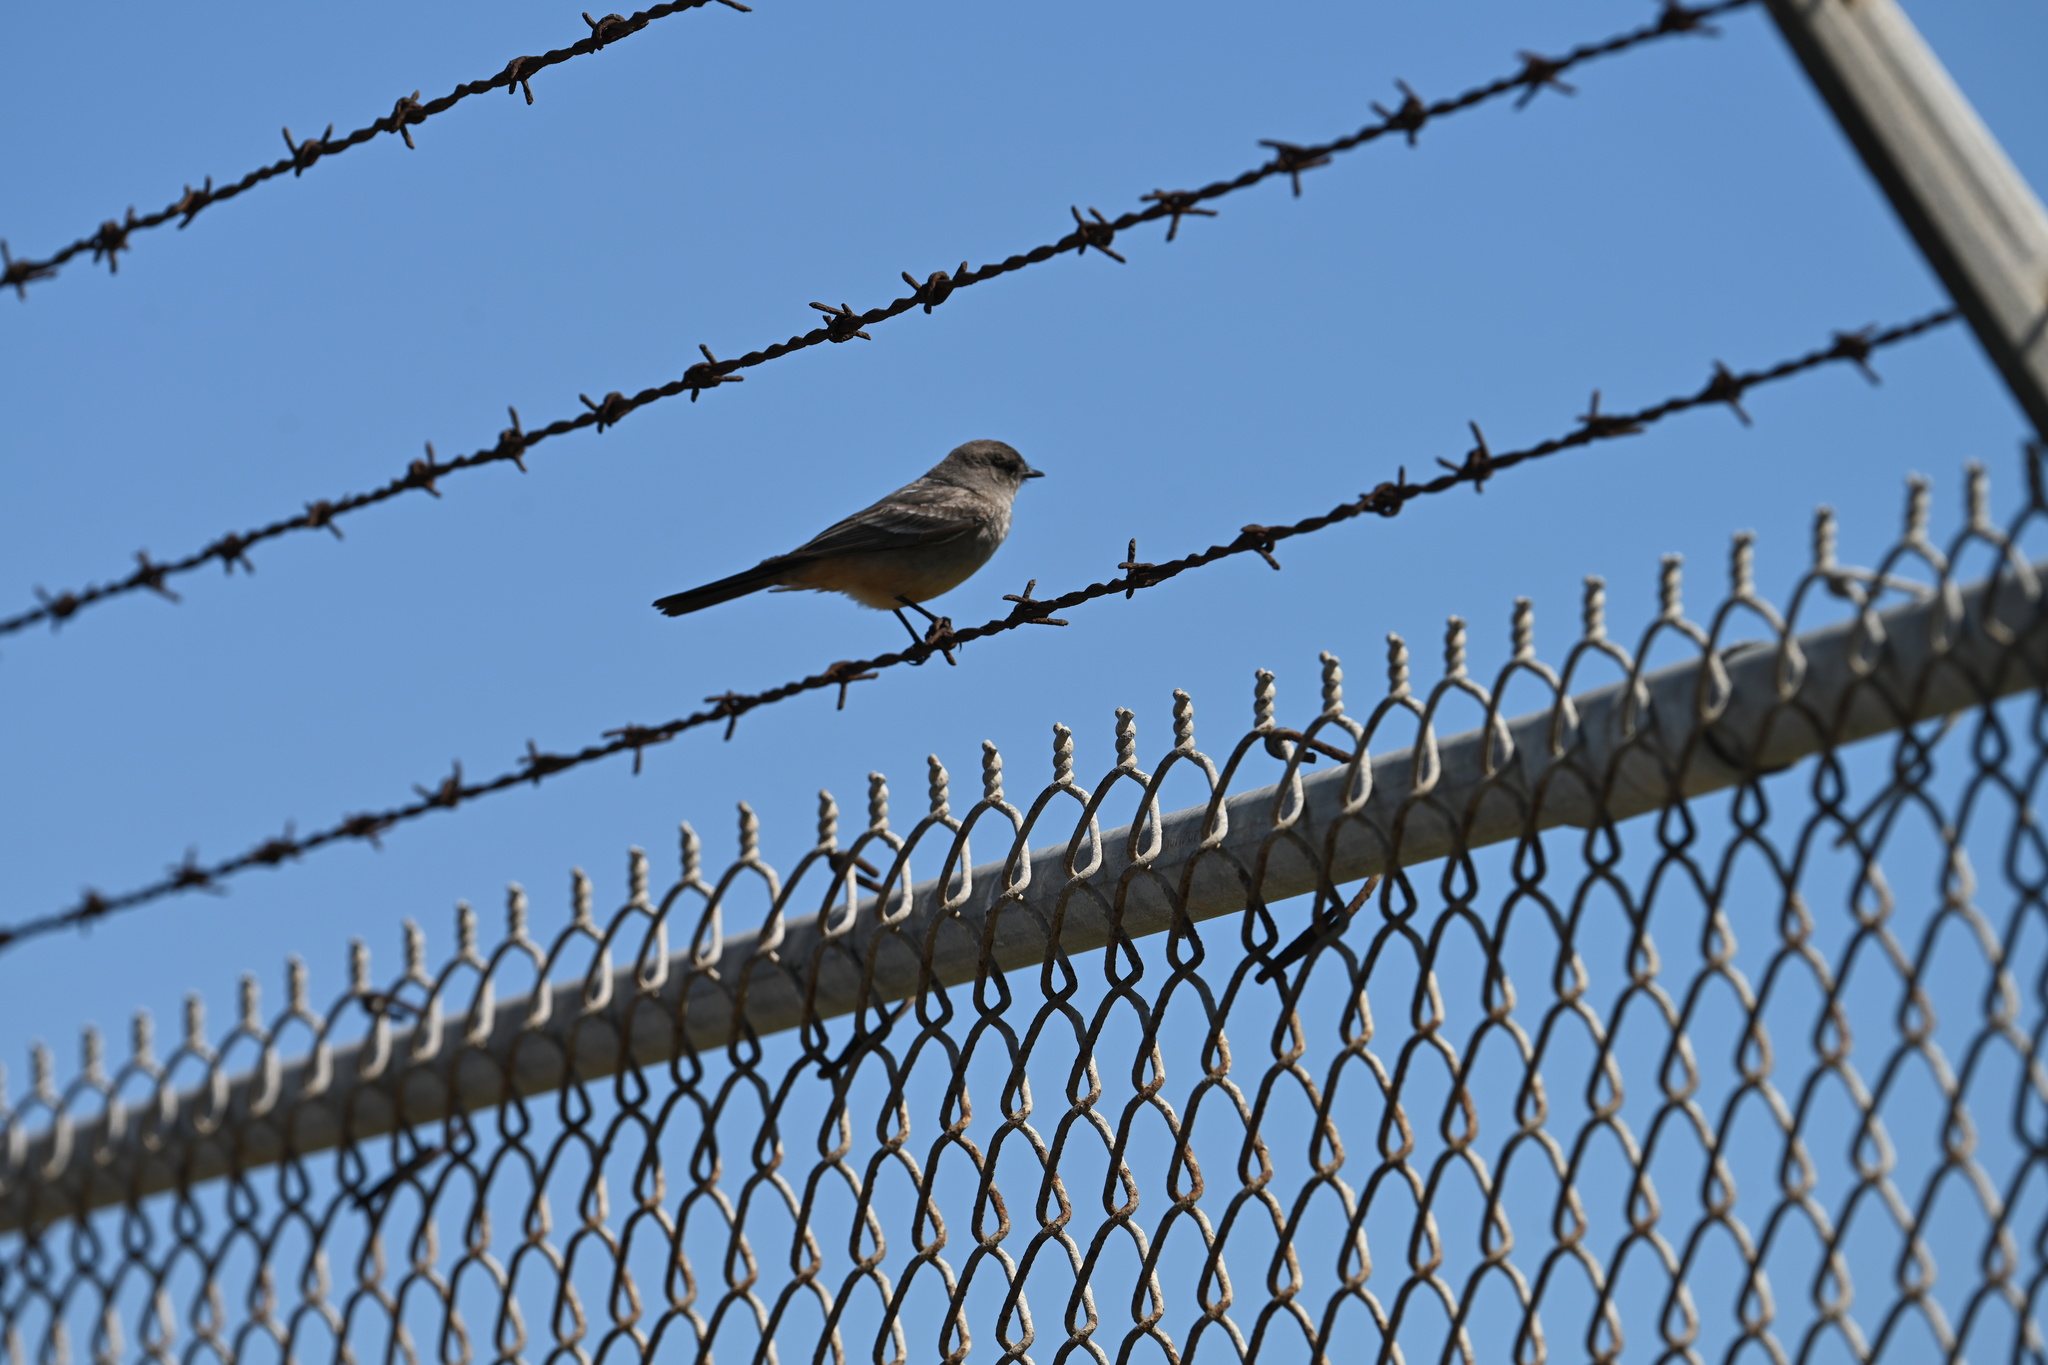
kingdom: Animalia
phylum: Chordata
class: Aves
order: Passeriformes
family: Tyrannidae
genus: Sayornis
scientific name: Sayornis saya
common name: Say's phoebe
